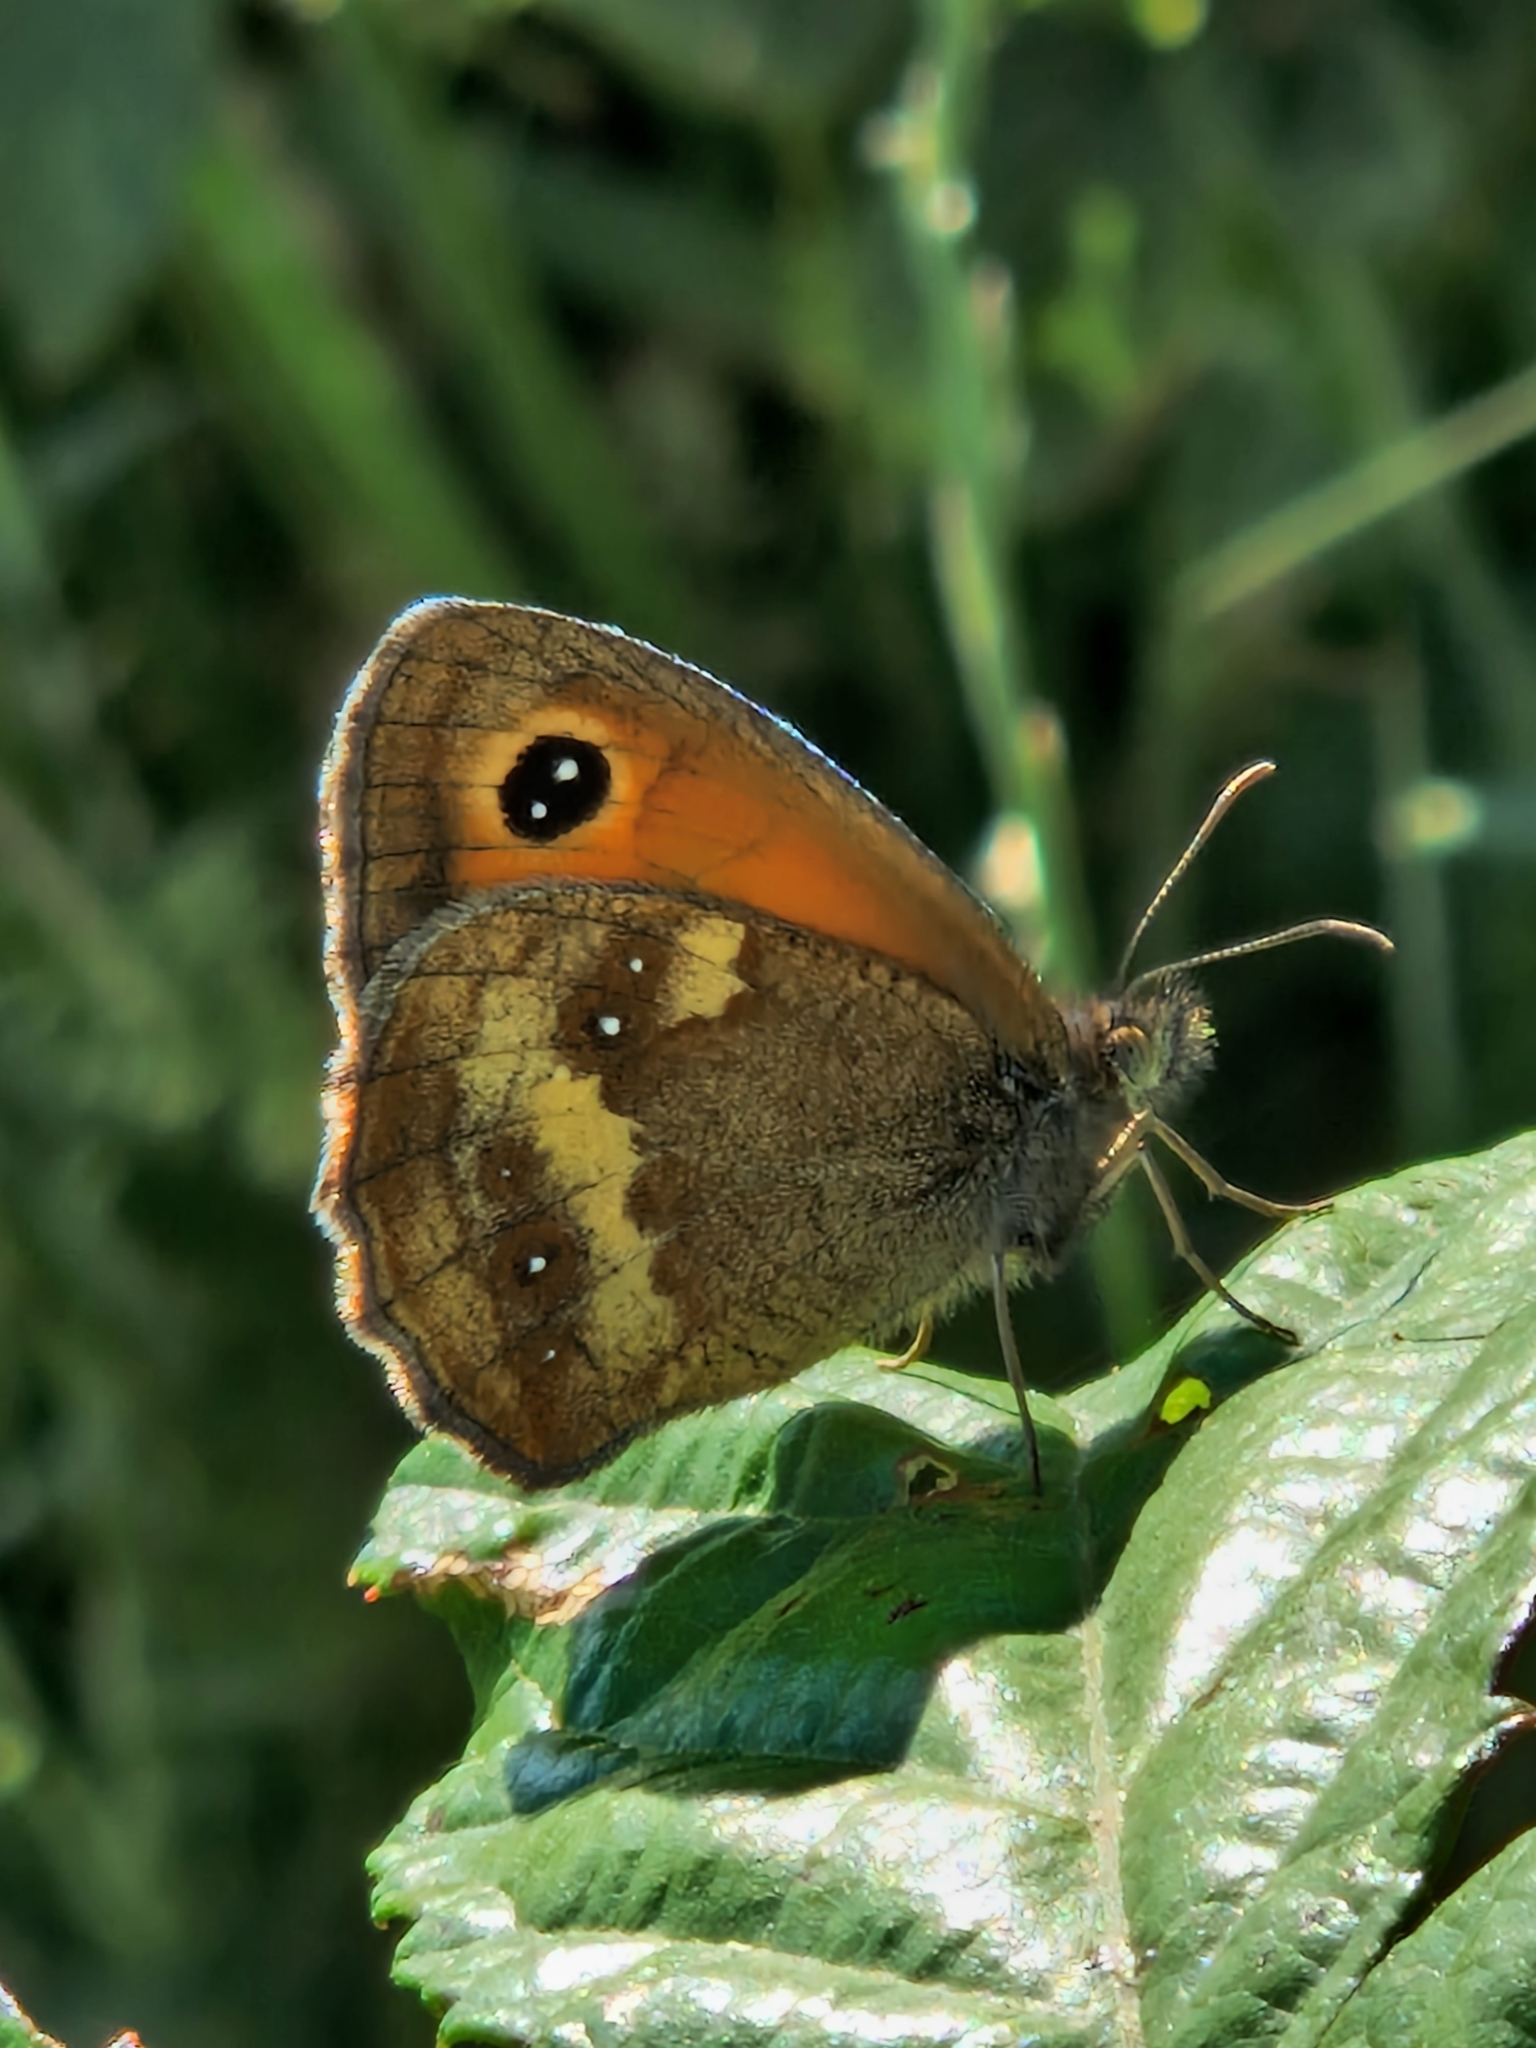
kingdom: Animalia
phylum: Arthropoda
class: Insecta
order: Lepidoptera
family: Nymphalidae
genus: Pyronia
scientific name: Pyronia tithonus
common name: Gatekeeper
